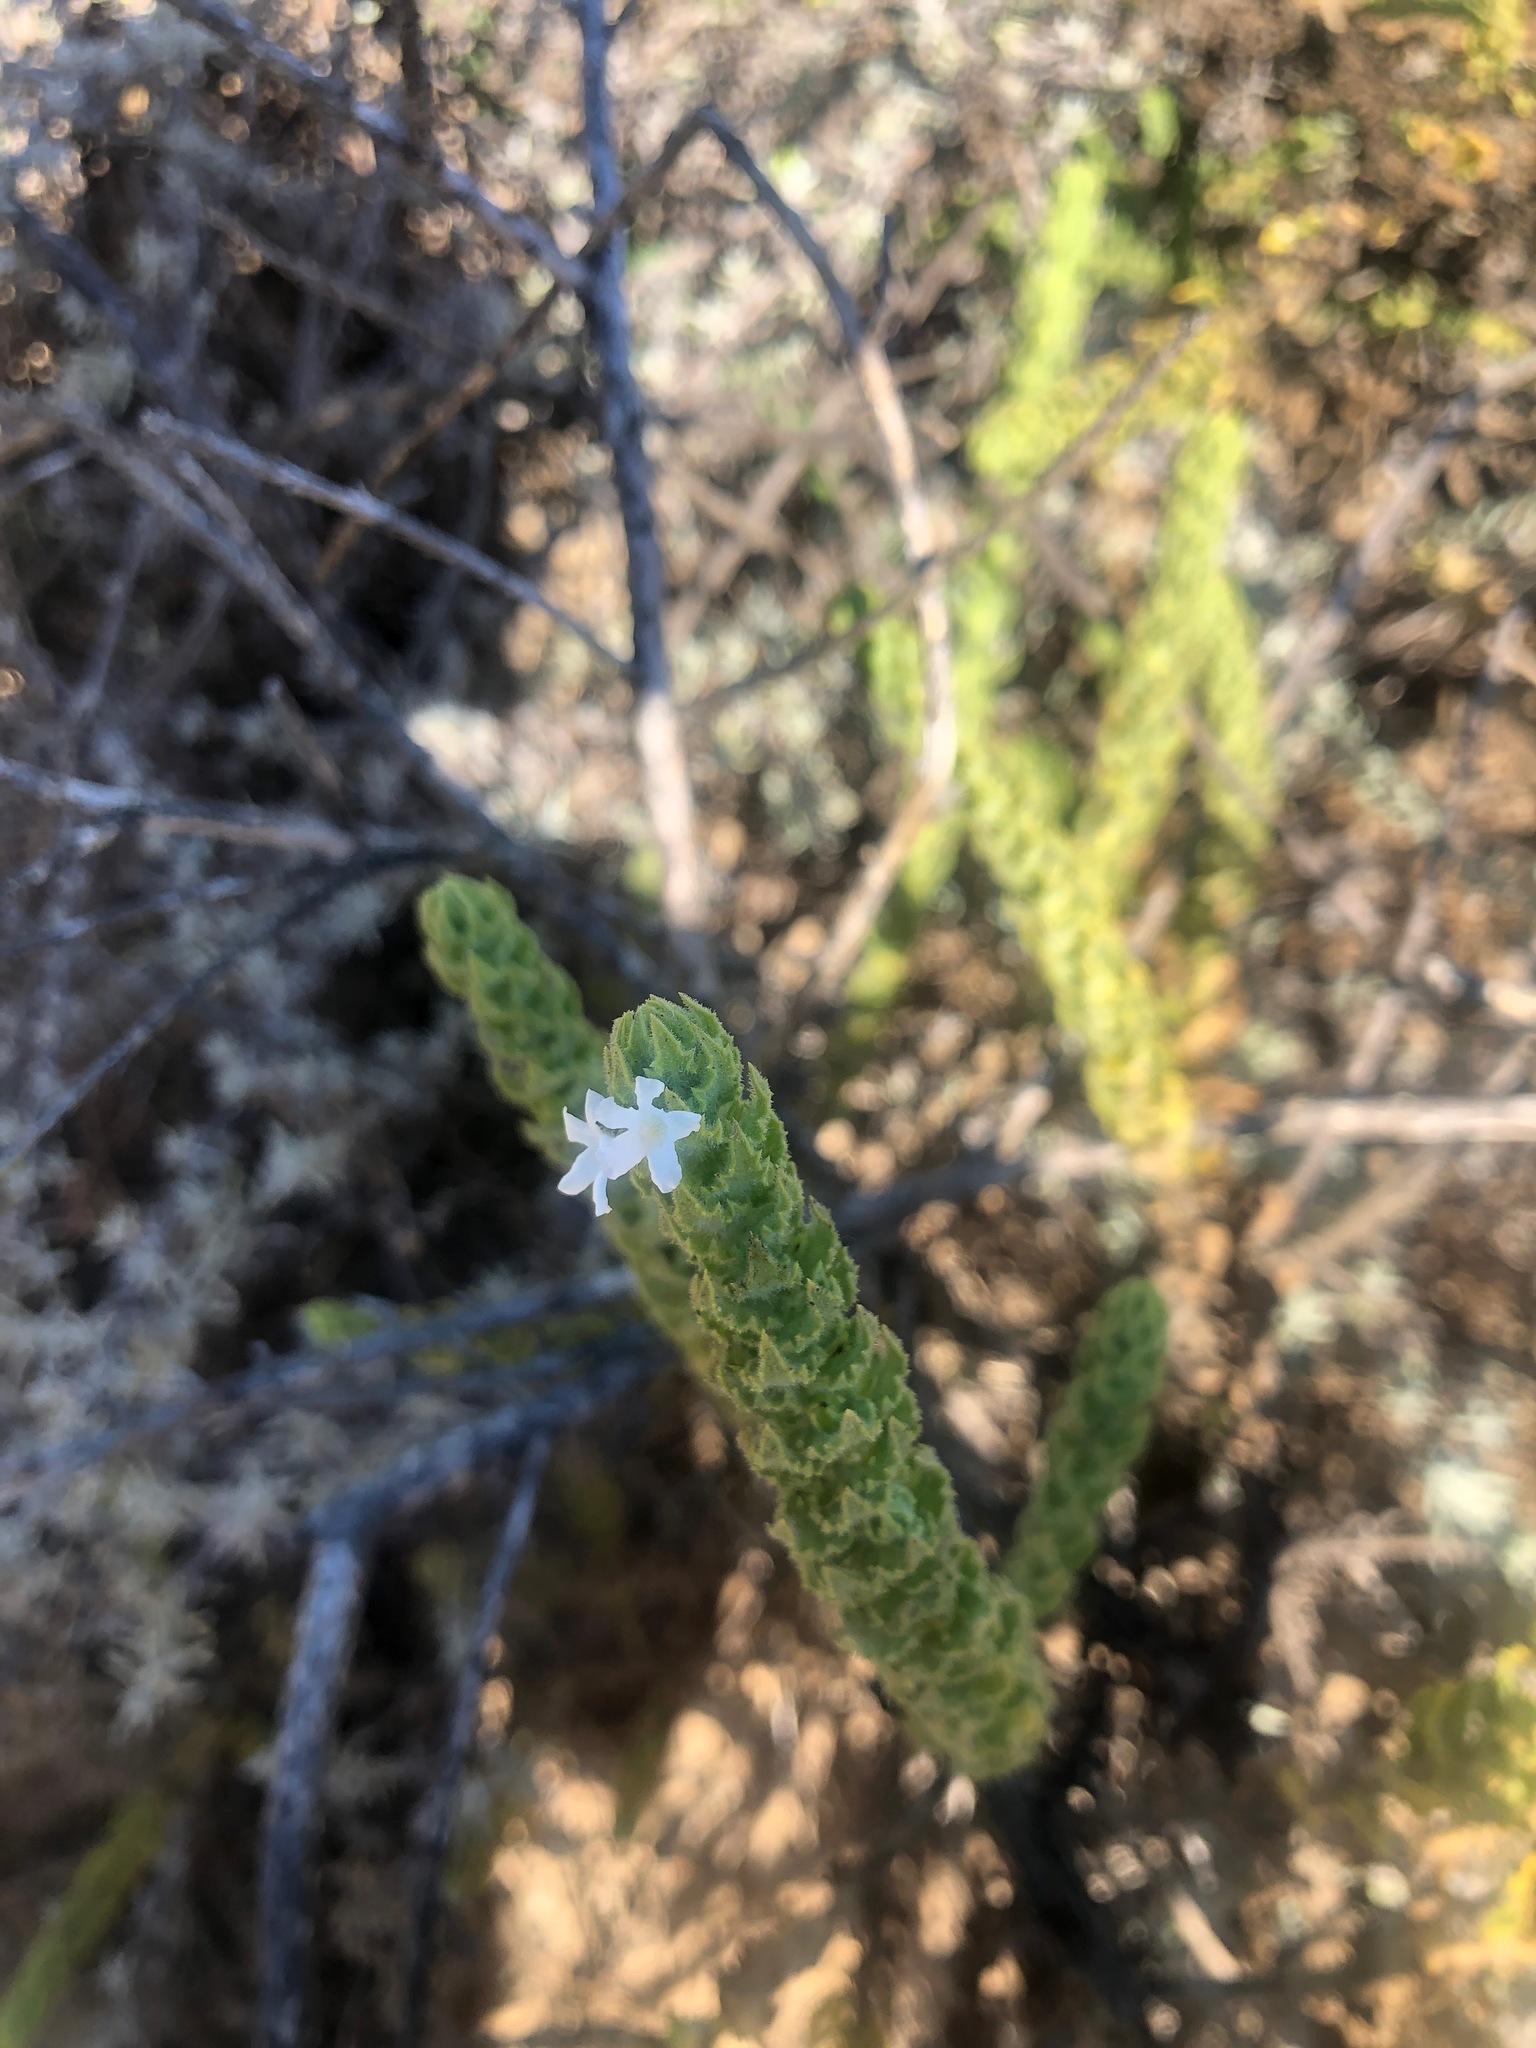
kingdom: Plantae
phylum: Tracheophyta
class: Magnoliopsida
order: Lamiales
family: Scrophulariaceae
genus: Oftia
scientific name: Oftia africana
